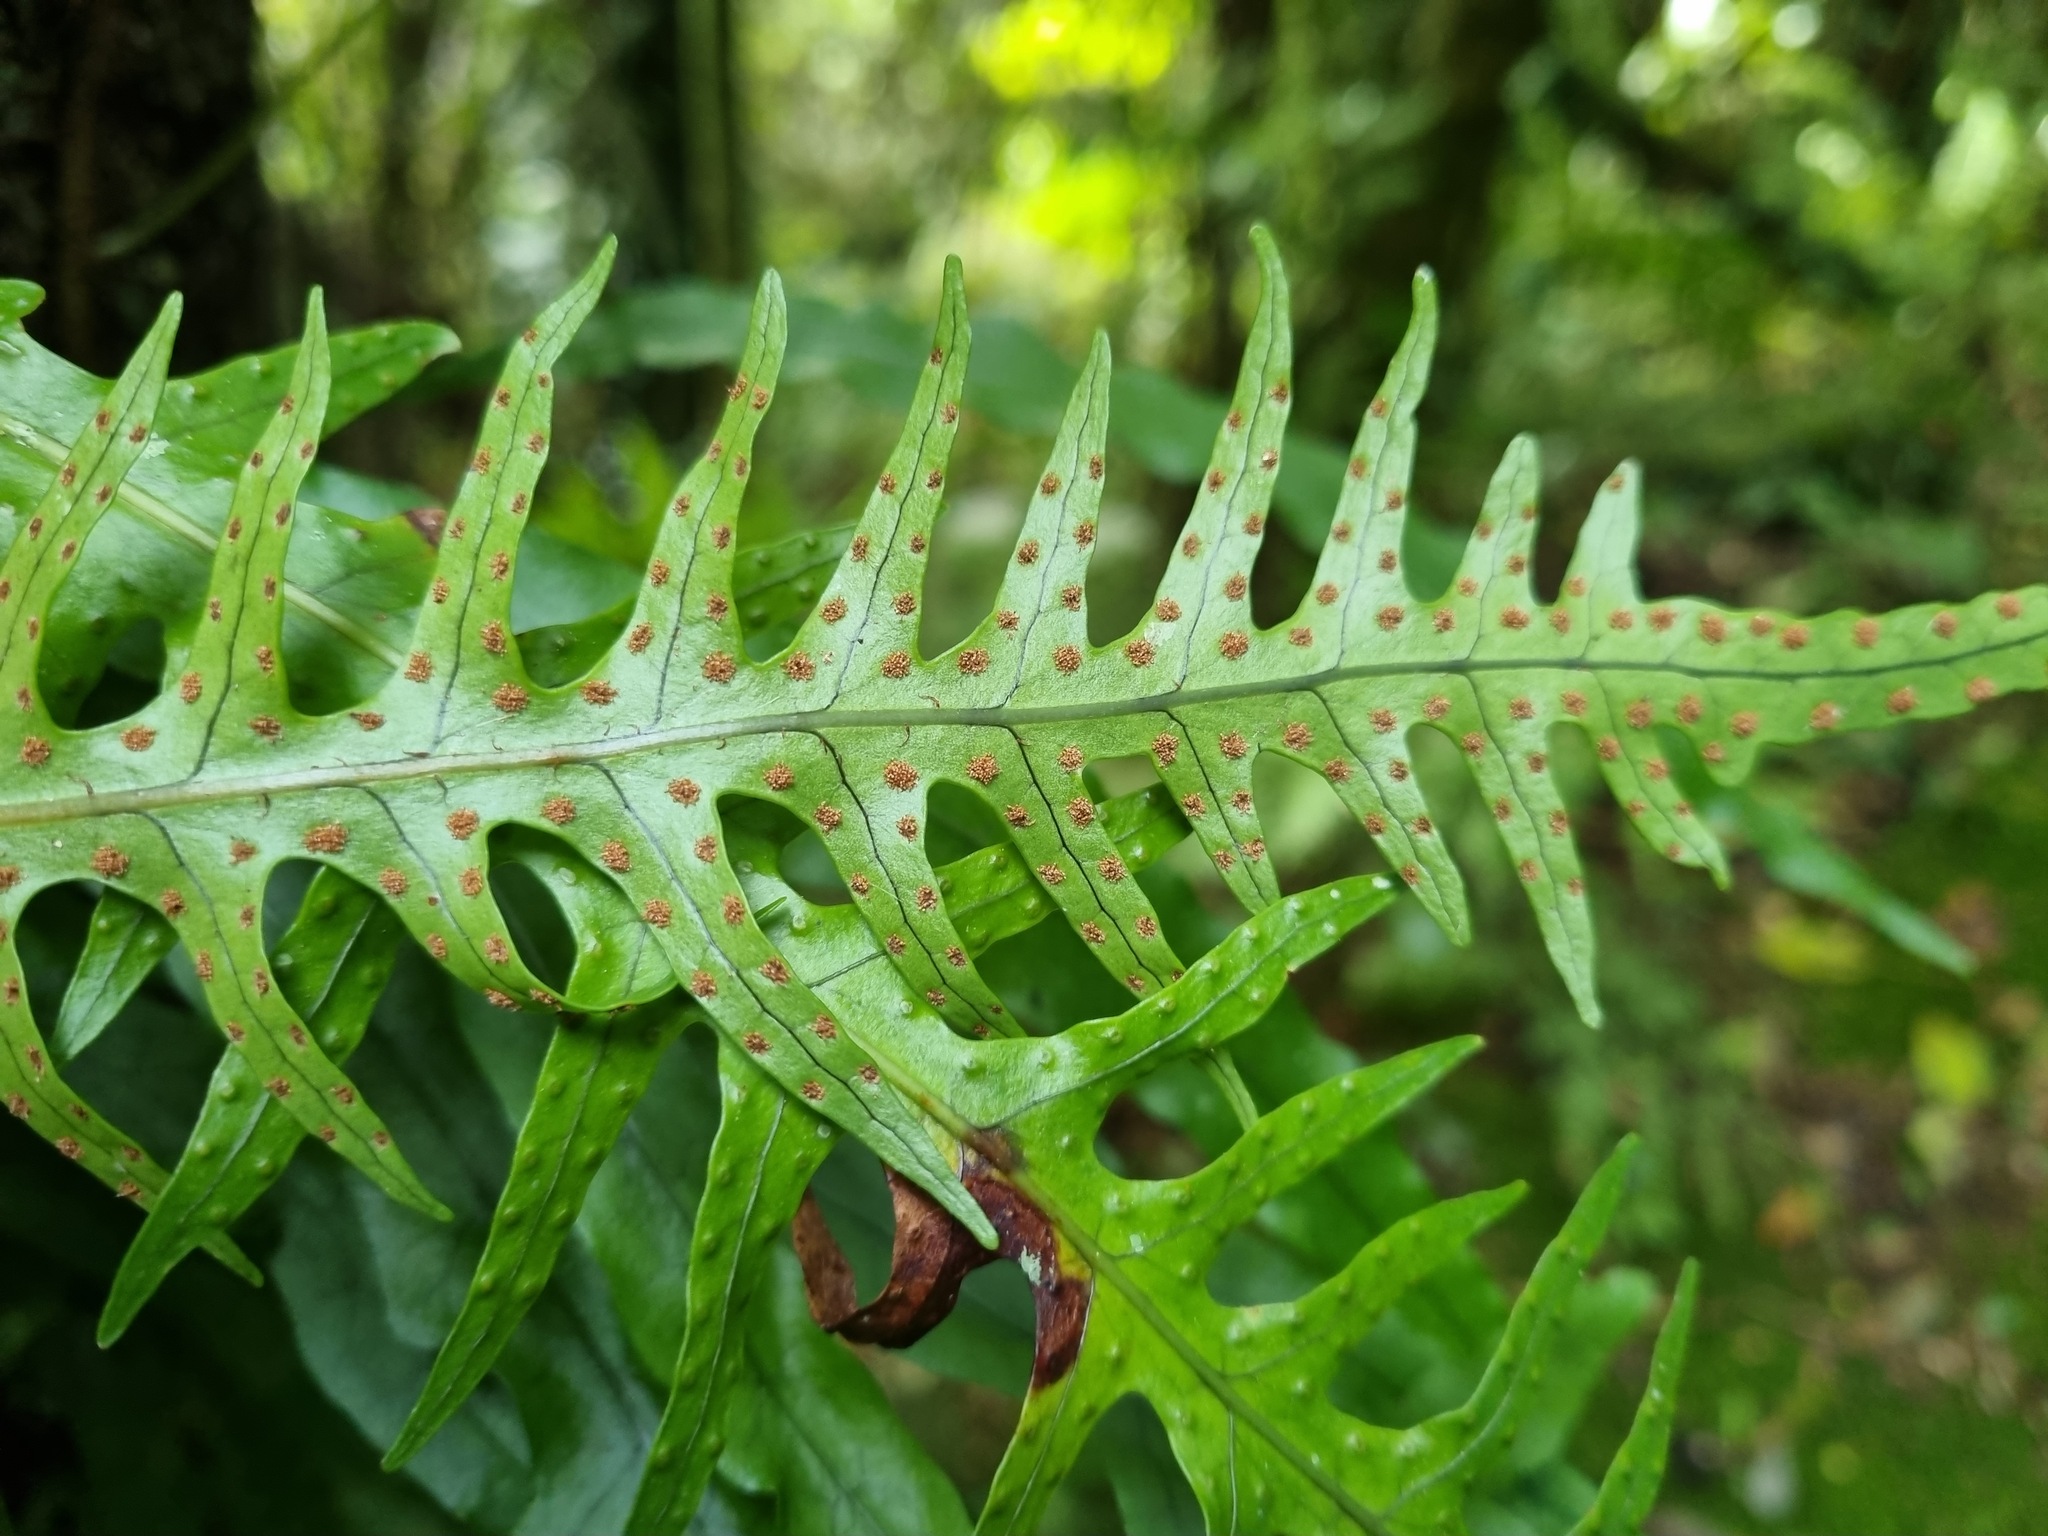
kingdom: Plantae
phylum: Tracheophyta
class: Polypodiopsida
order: Polypodiales
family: Polypodiaceae
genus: Lecanopteris
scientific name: Lecanopteris scandens
